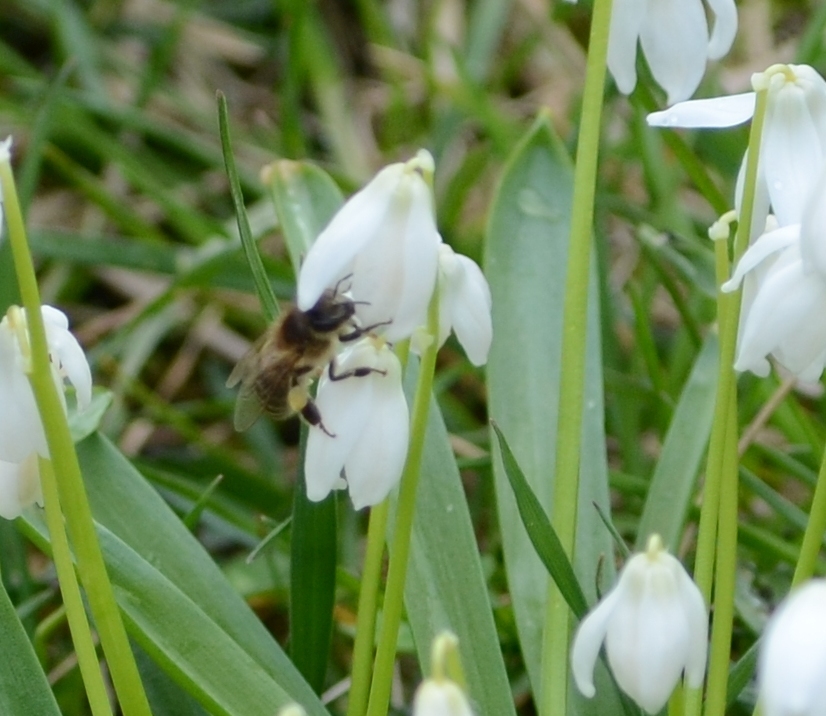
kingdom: Animalia
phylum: Arthropoda
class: Insecta
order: Hymenoptera
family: Apidae
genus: Apis
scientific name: Apis mellifera
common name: Honey bee
